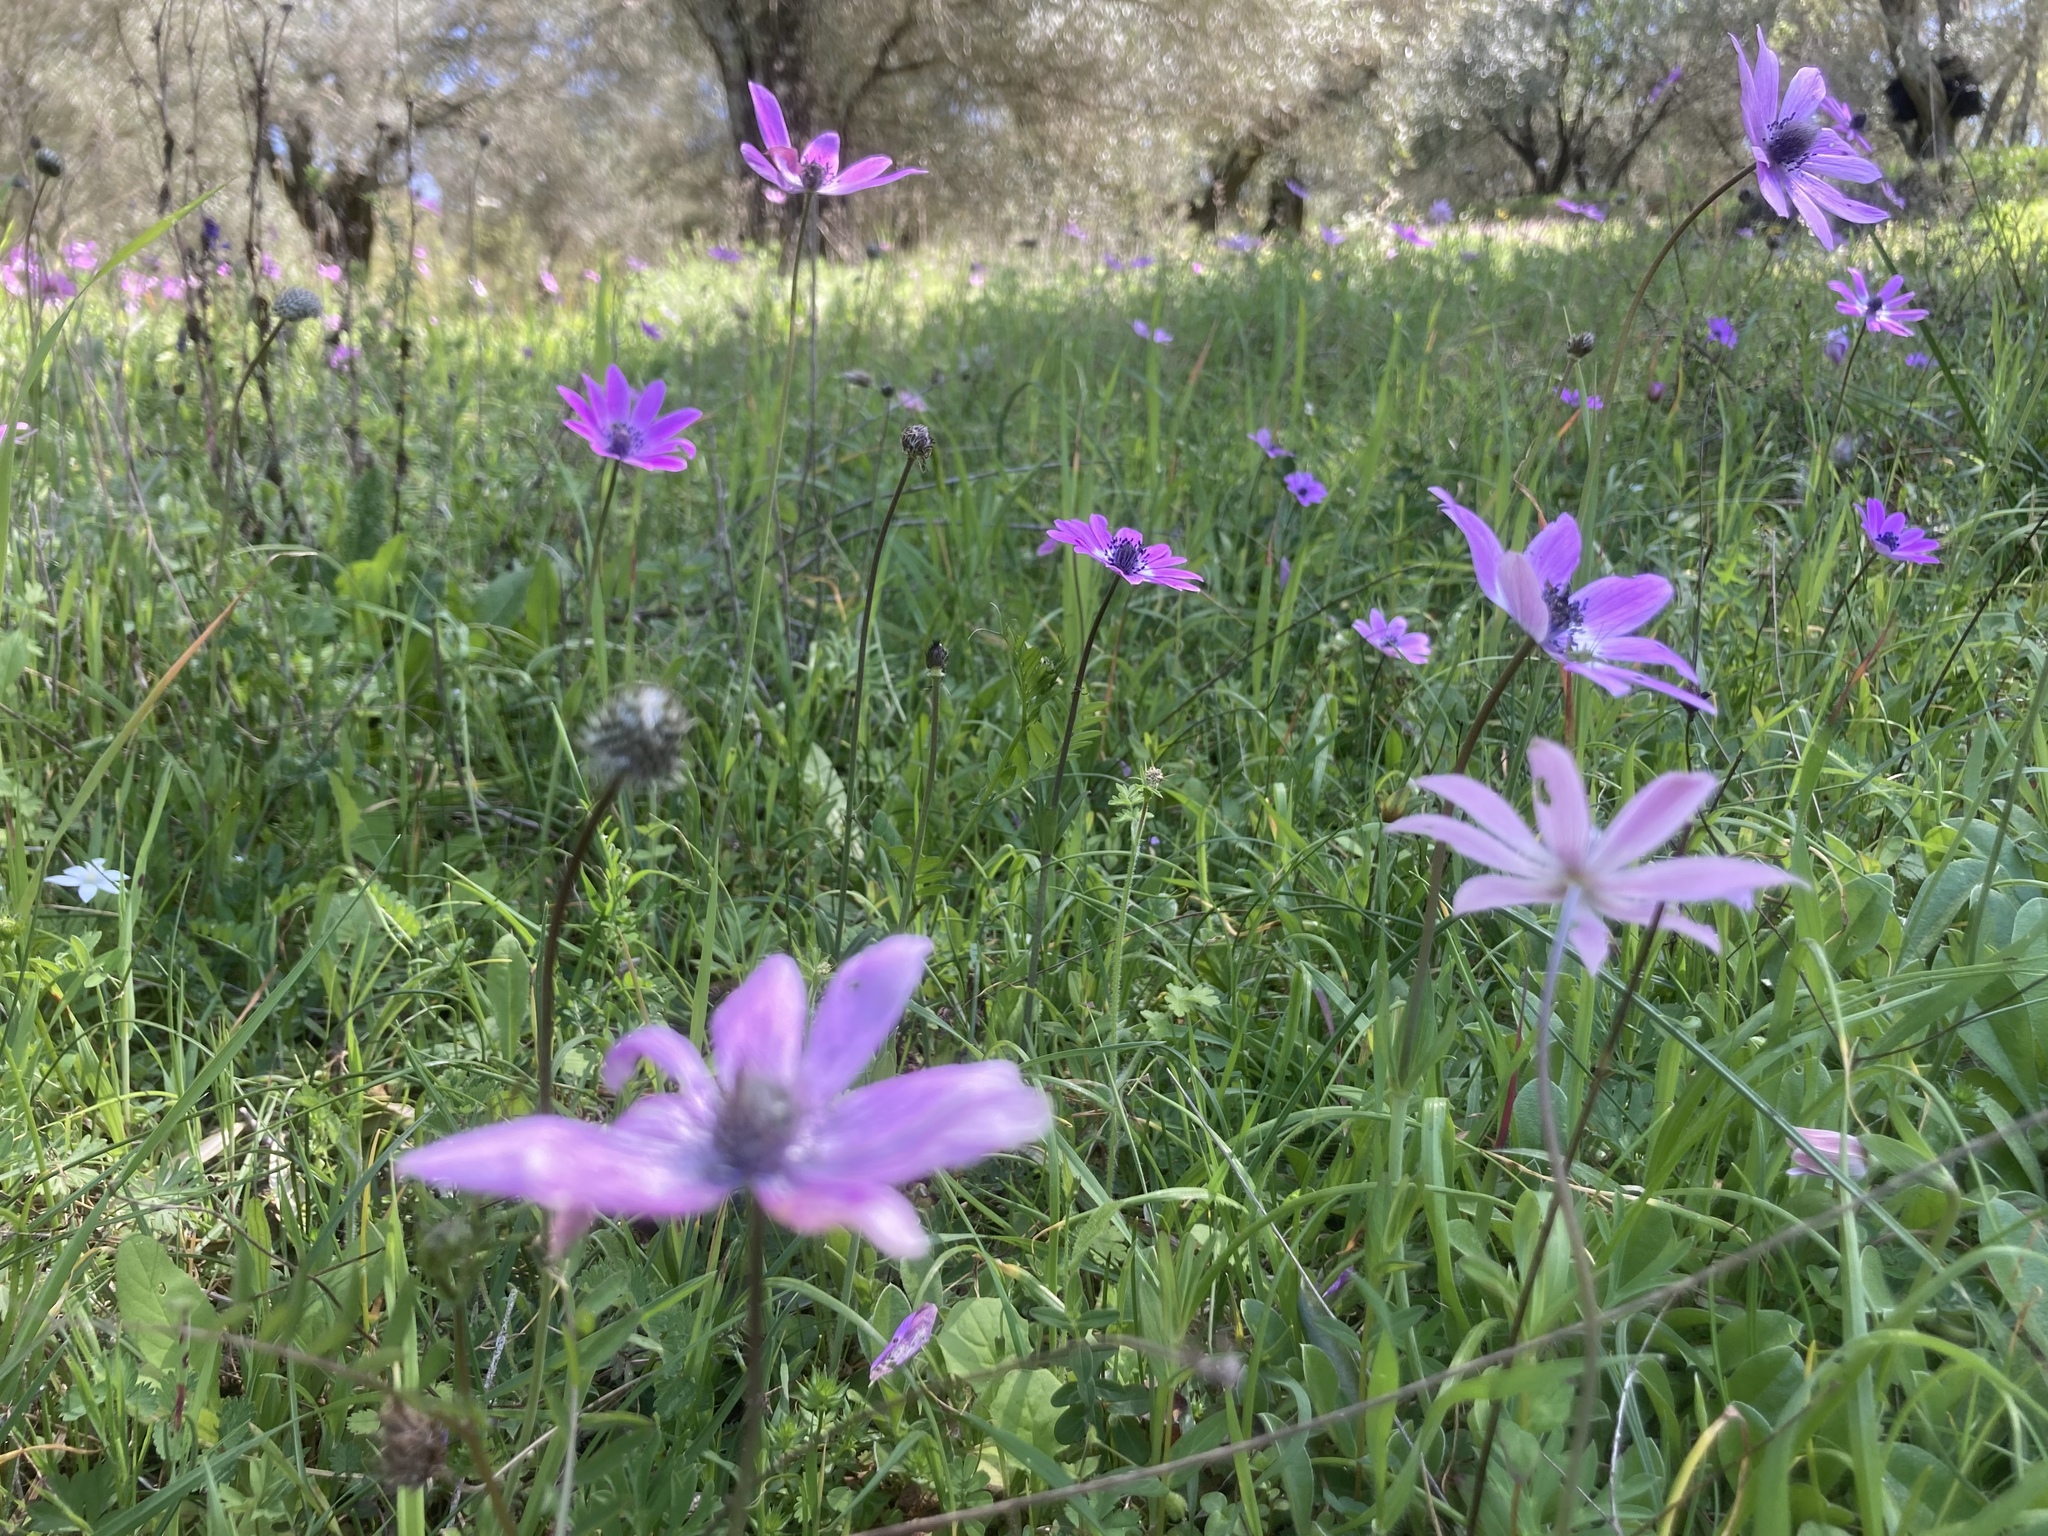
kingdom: Plantae
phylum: Tracheophyta
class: Magnoliopsida
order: Ranunculales
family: Ranunculaceae
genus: Anemone
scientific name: Anemone pavonina
